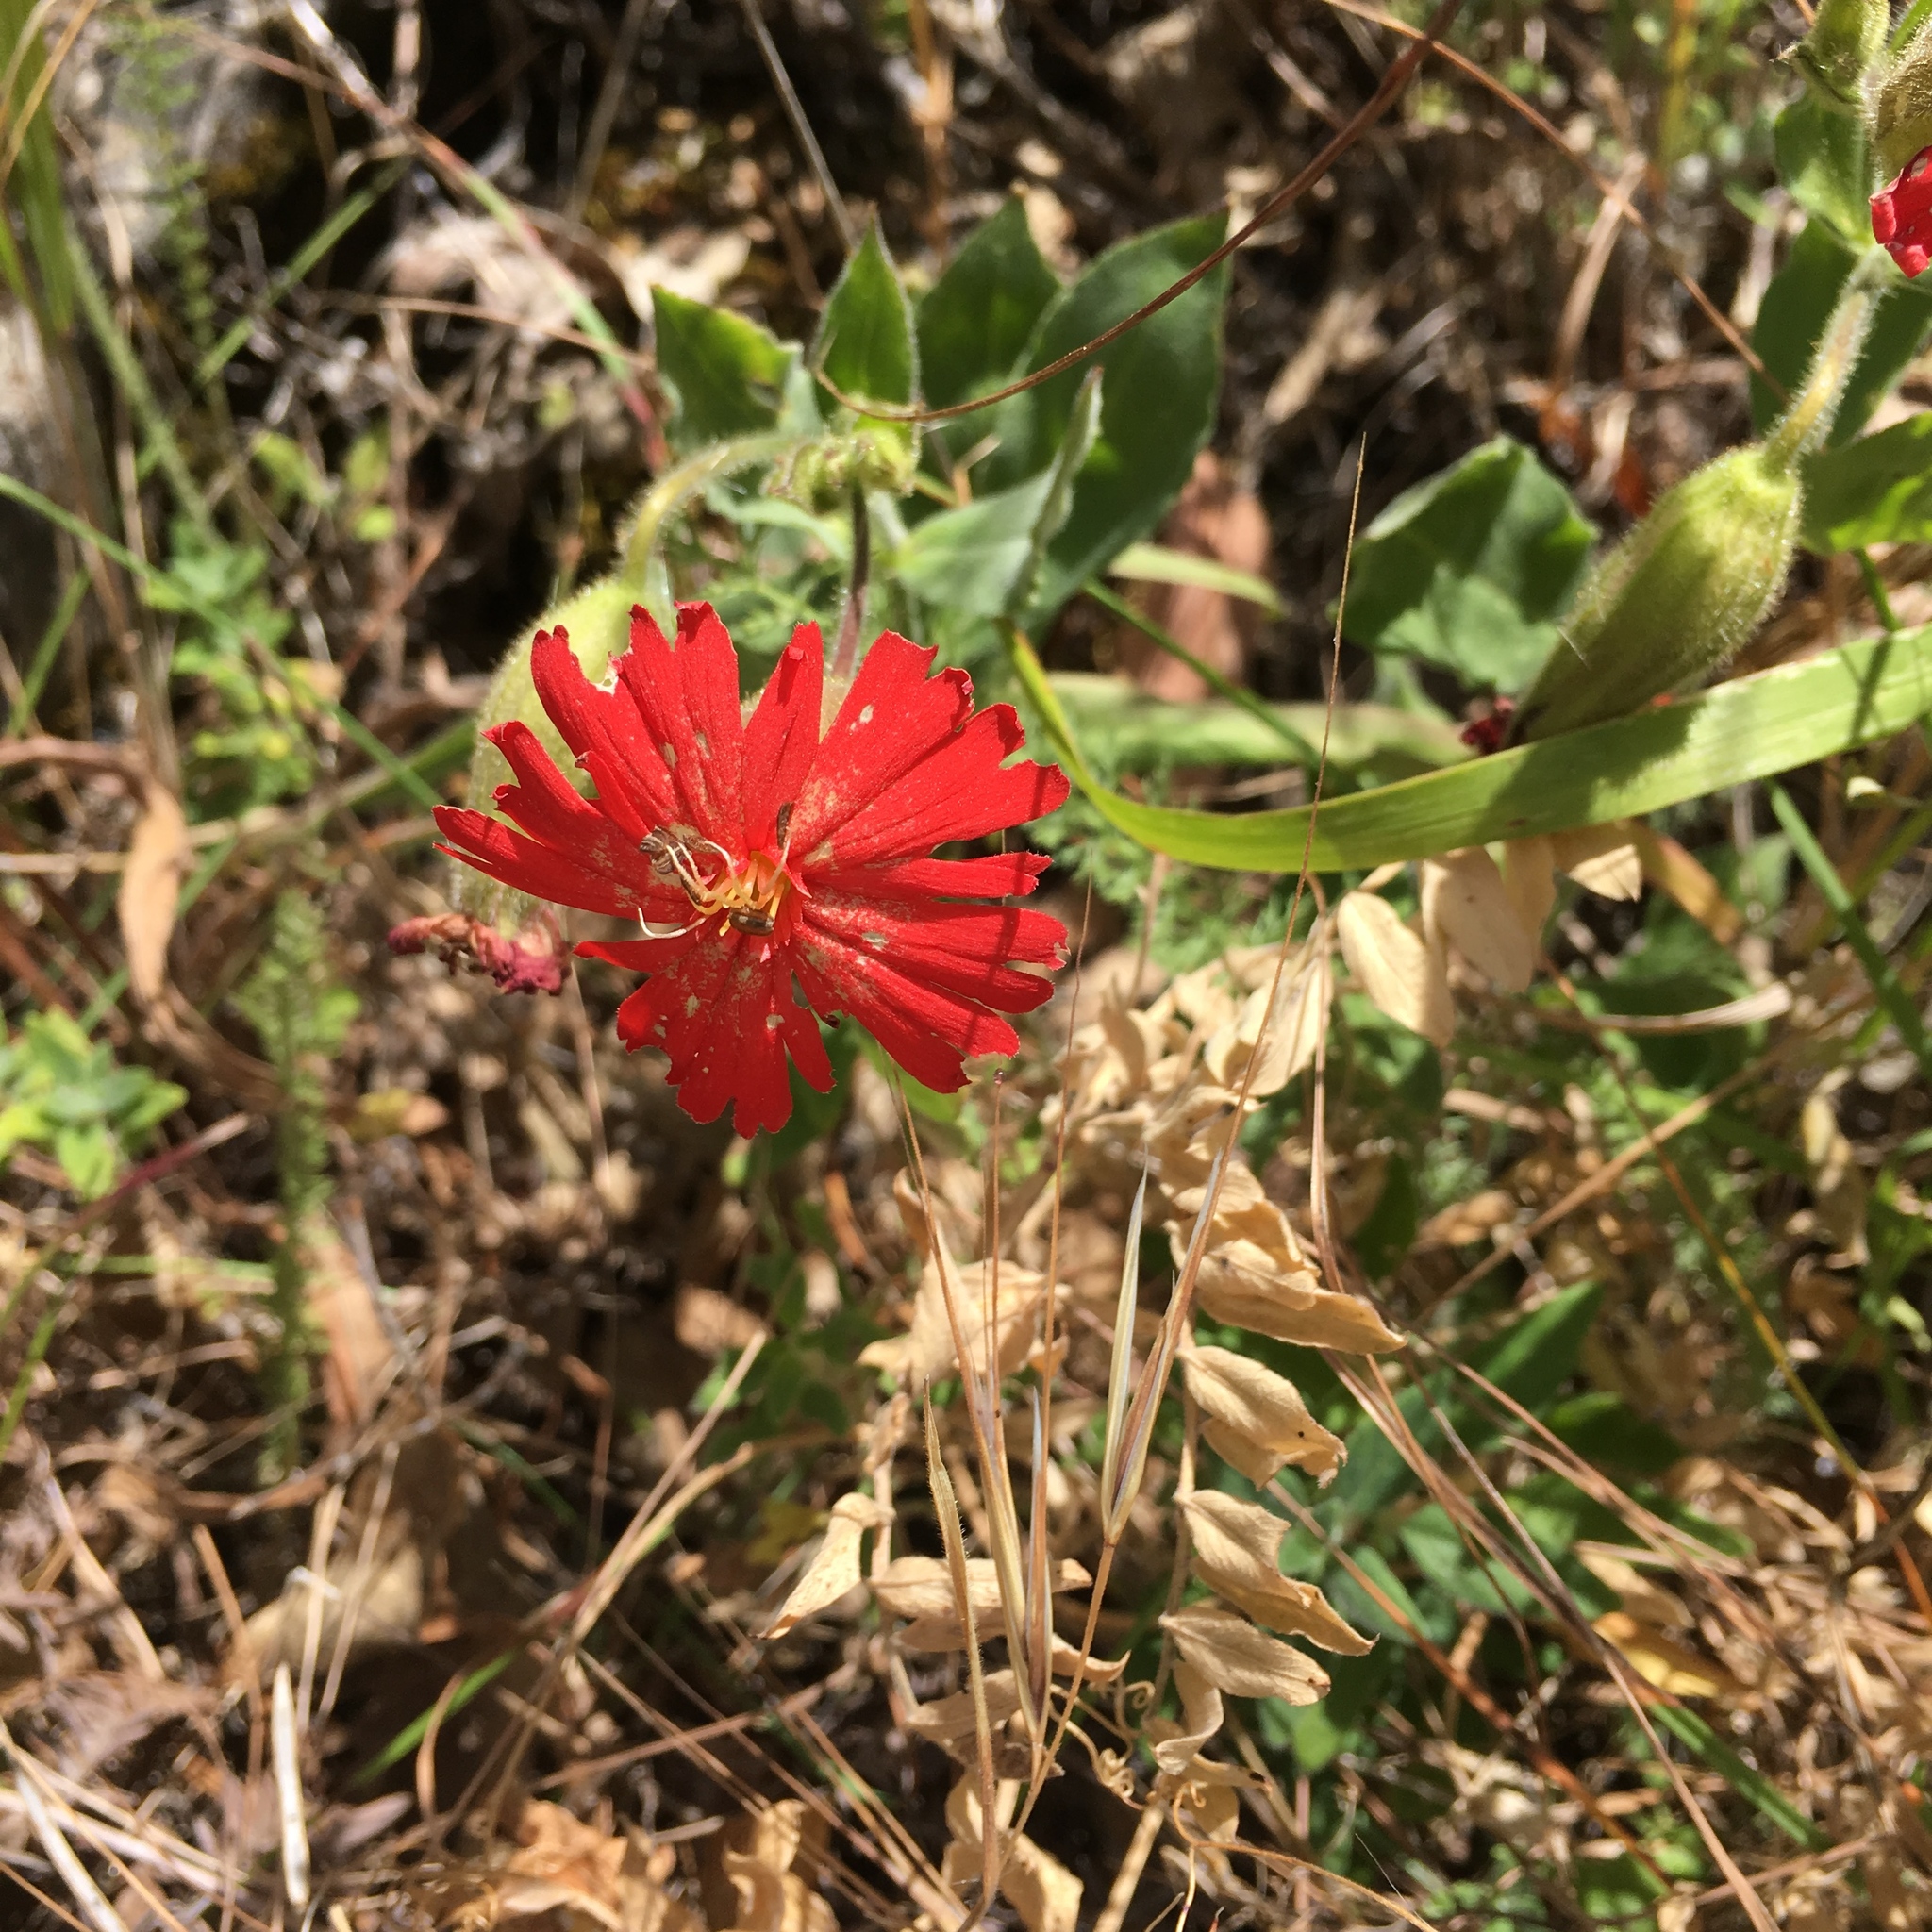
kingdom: Plantae
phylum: Tracheophyta
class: Magnoliopsida
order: Caryophyllales
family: Caryophyllaceae
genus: Silene
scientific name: Silene laciniata
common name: Indian-pink
